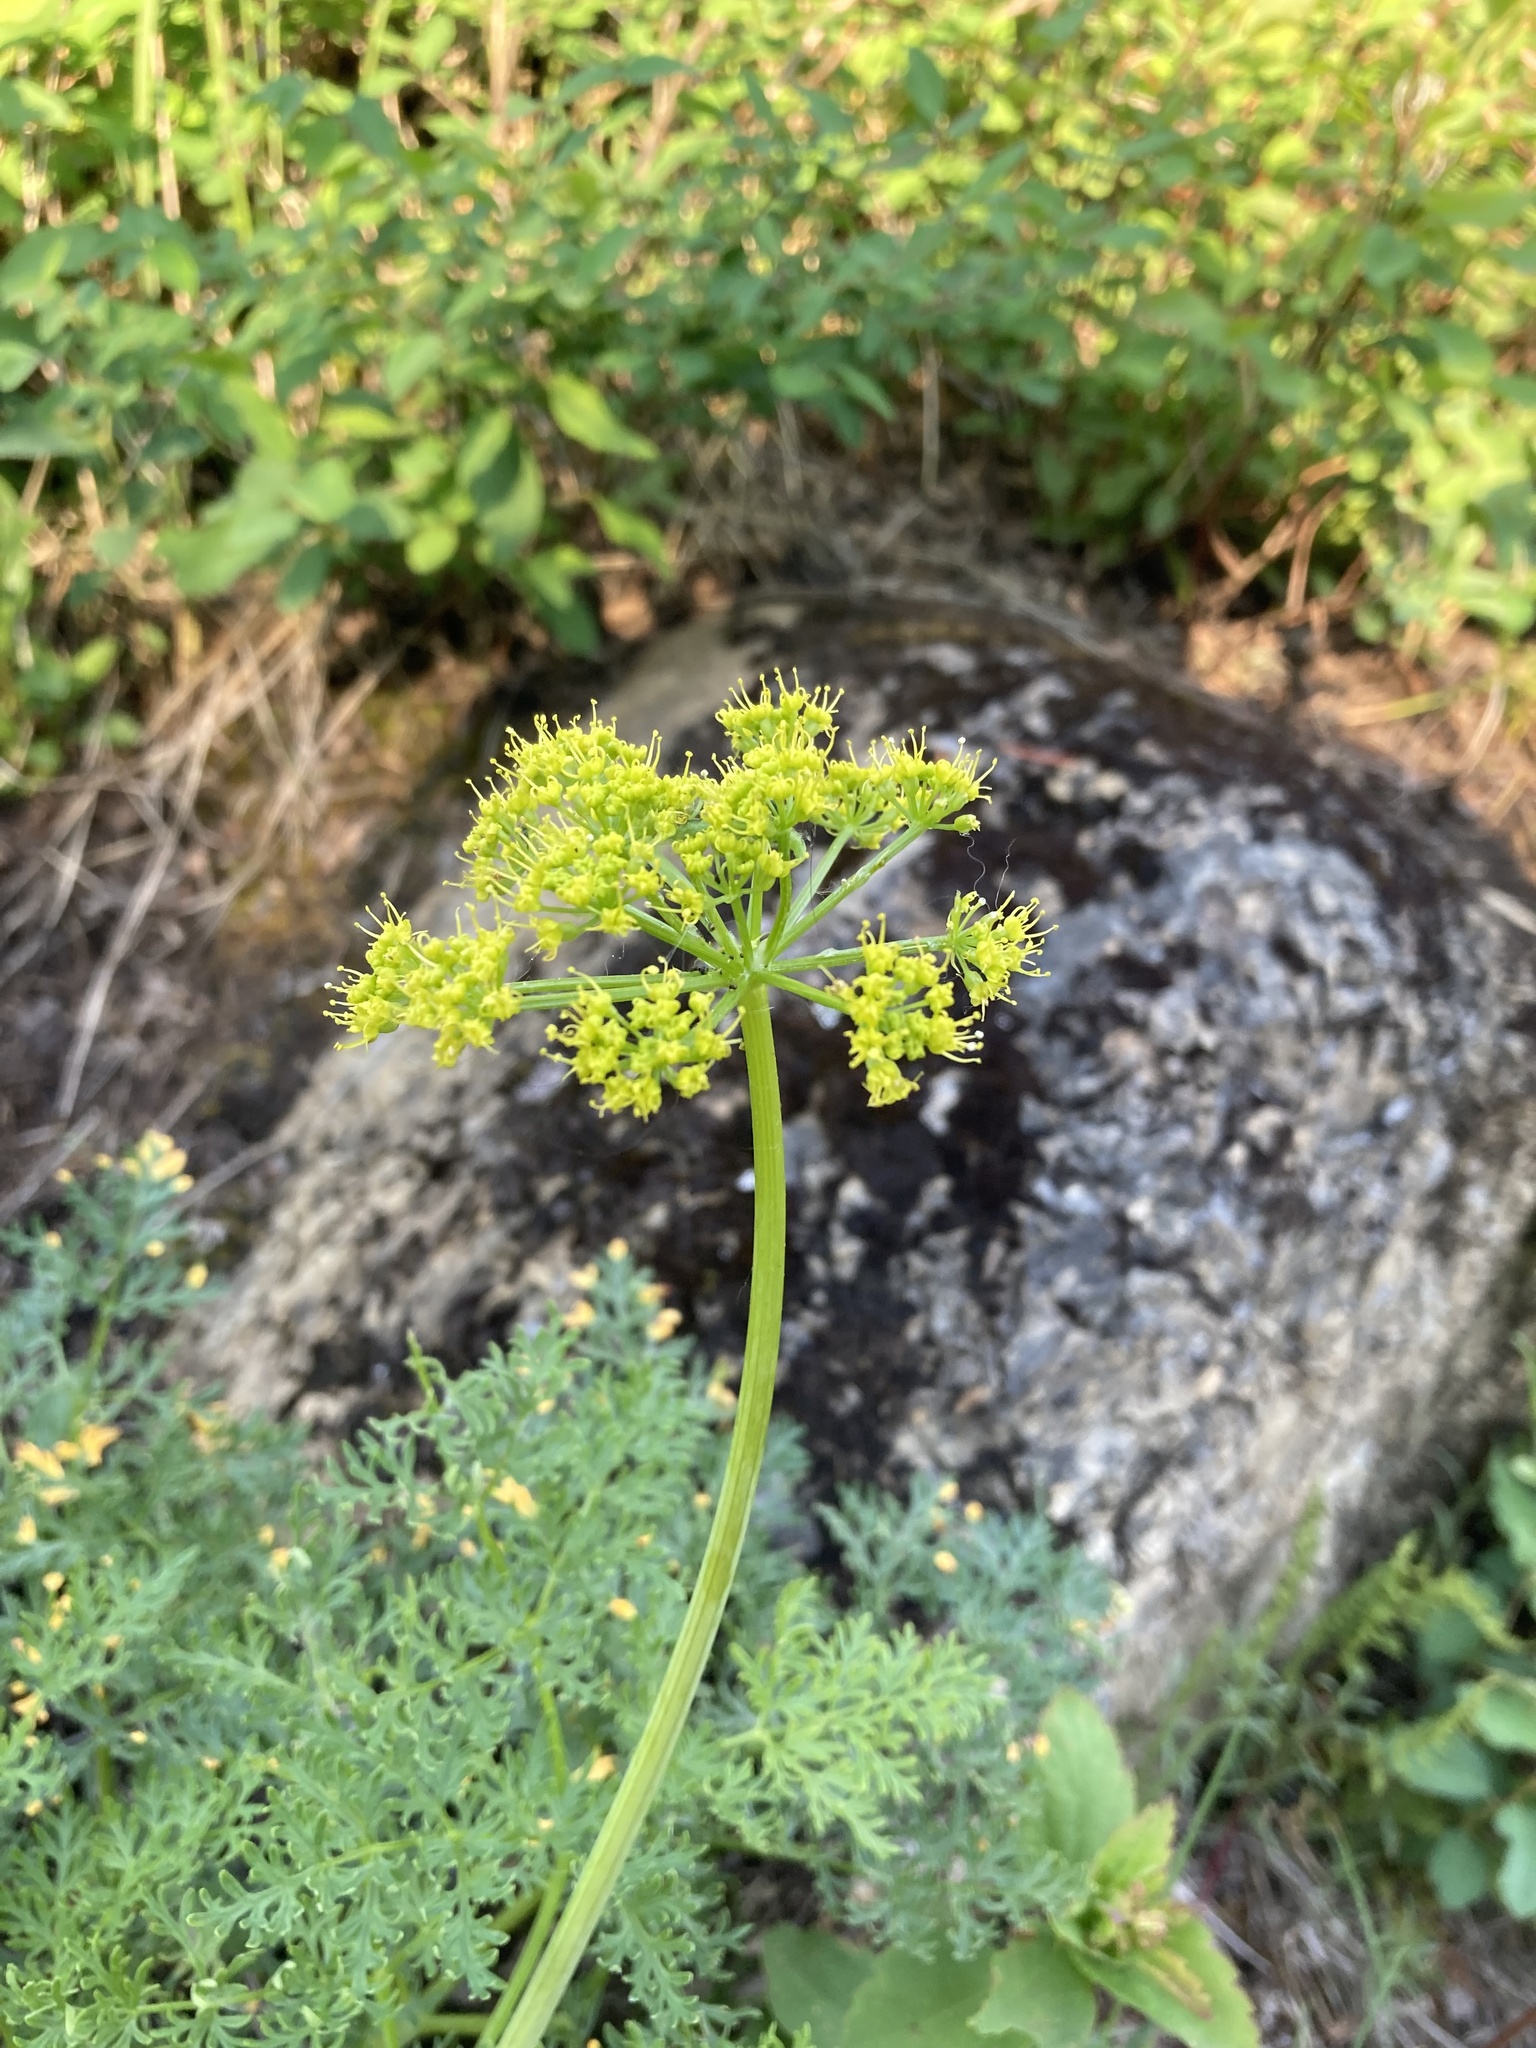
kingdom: Plantae
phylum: Tracheophyta
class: Magnoliopsida
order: Apiales
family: Apiaceae
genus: Lomatium
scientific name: Lomatium multifidum
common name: Carrot-leaved biscuitroot
